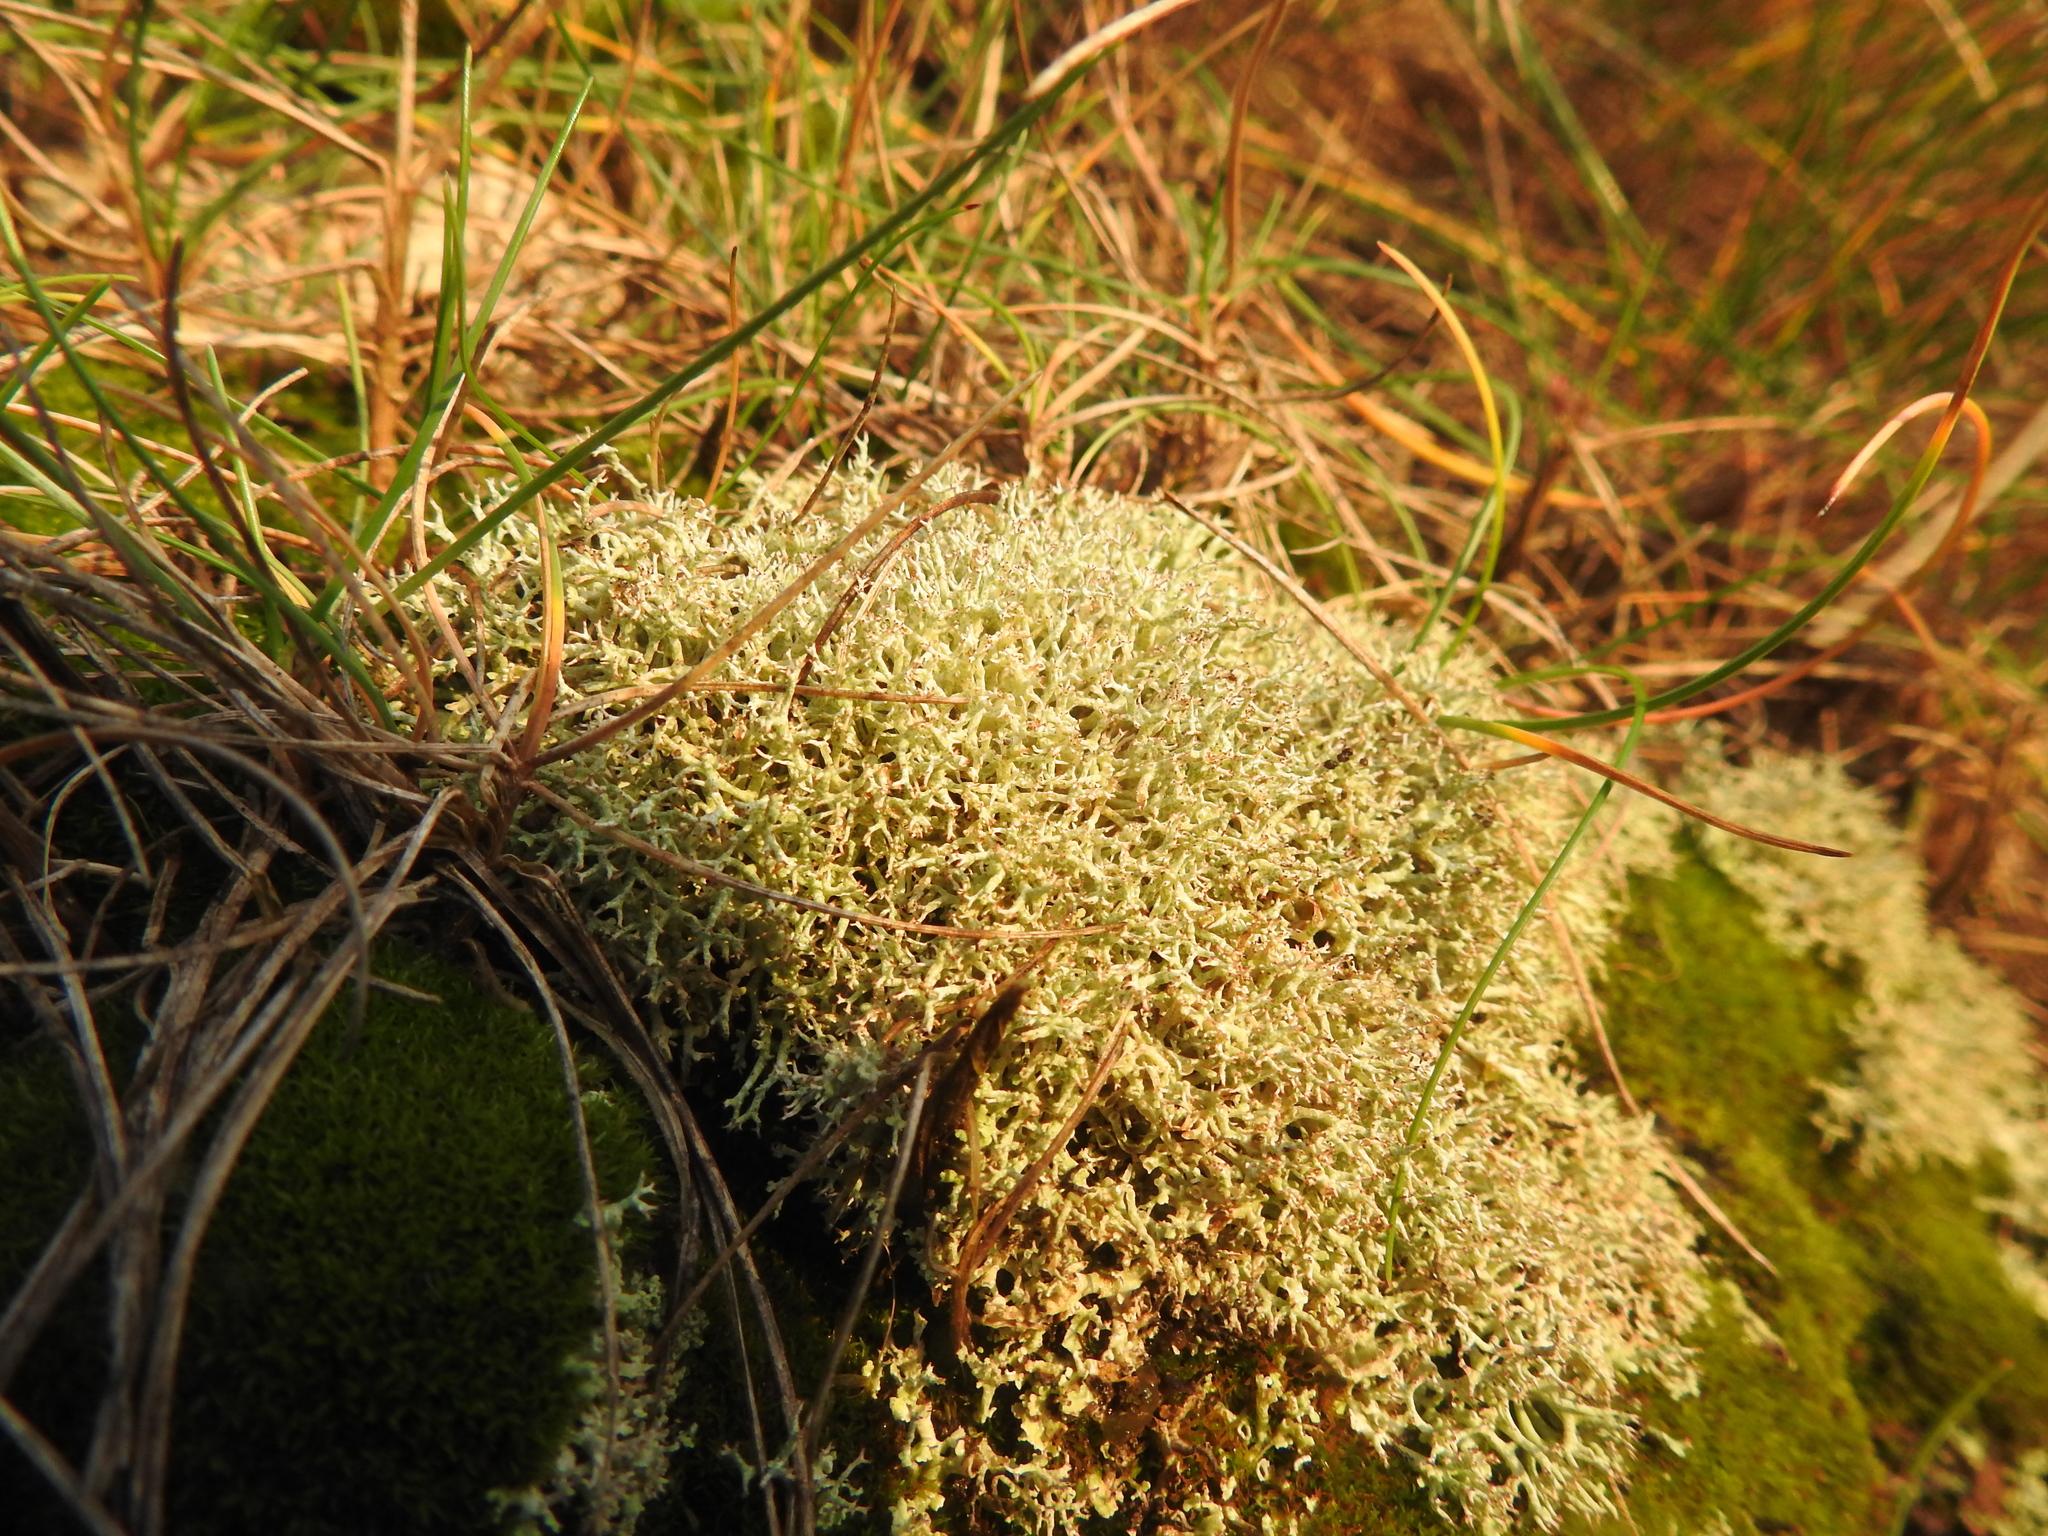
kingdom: Fungi
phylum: Ascomycota
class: Lecanoromycetes
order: Lecanorales
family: Cladoniaceae
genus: Cladonia
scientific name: Cladonia rangiformis
